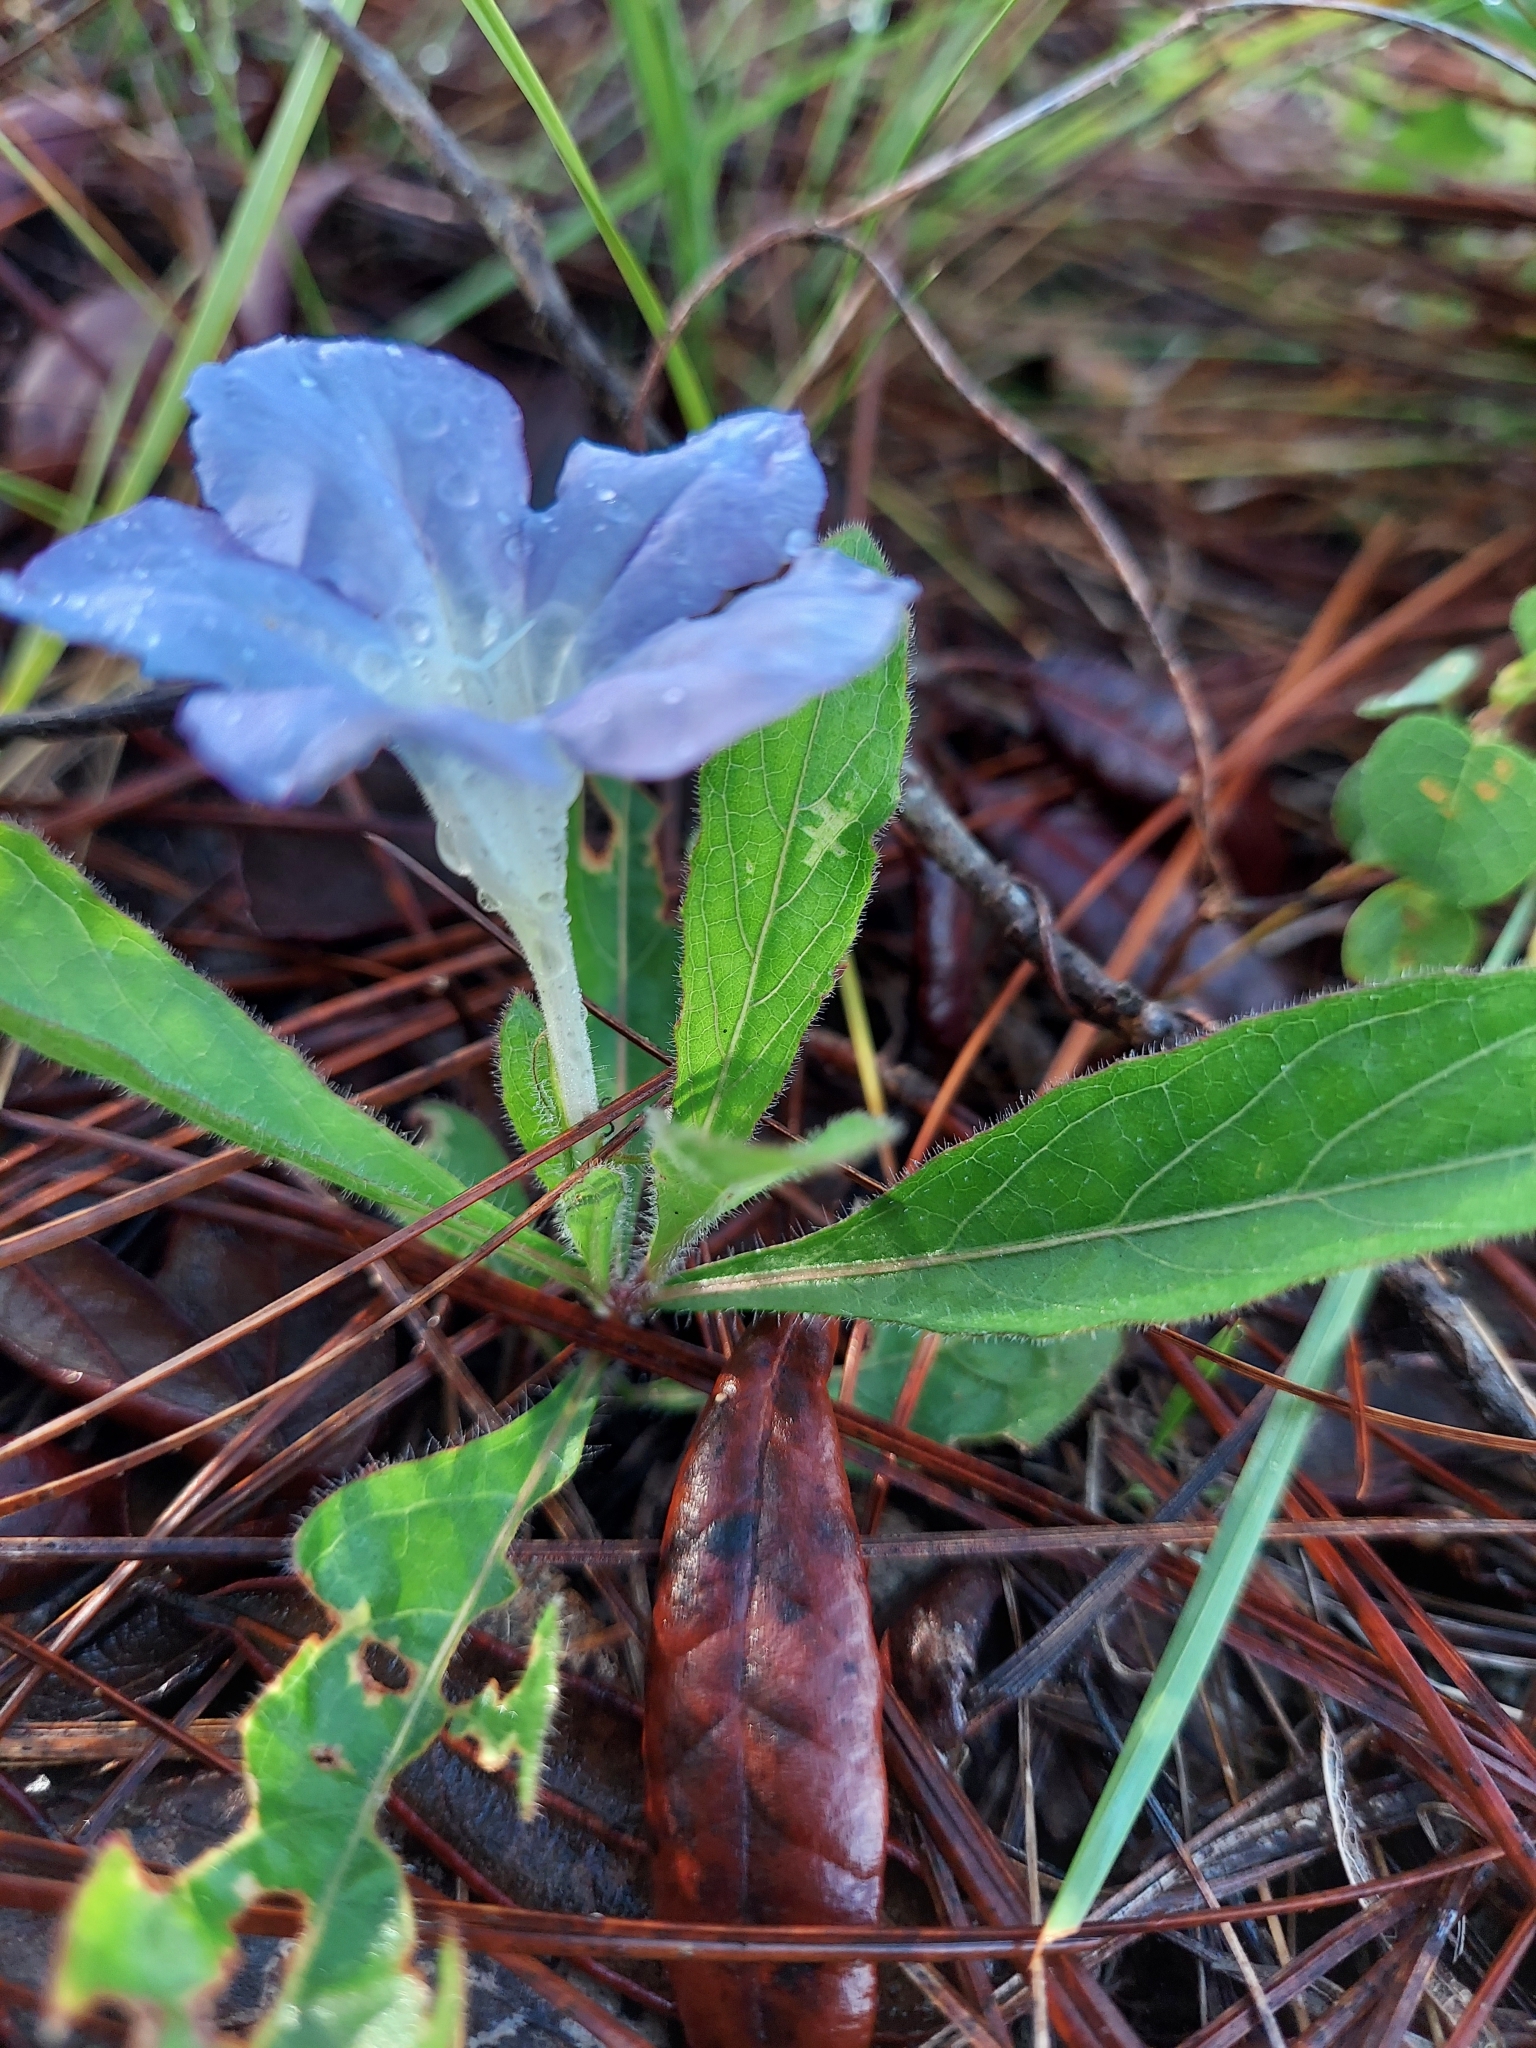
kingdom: Plantae
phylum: Tracheophyta
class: Magnoliopsida
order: Lamiales
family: Acanthaceae
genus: Ruellia
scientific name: Ruellia caroliniensis
